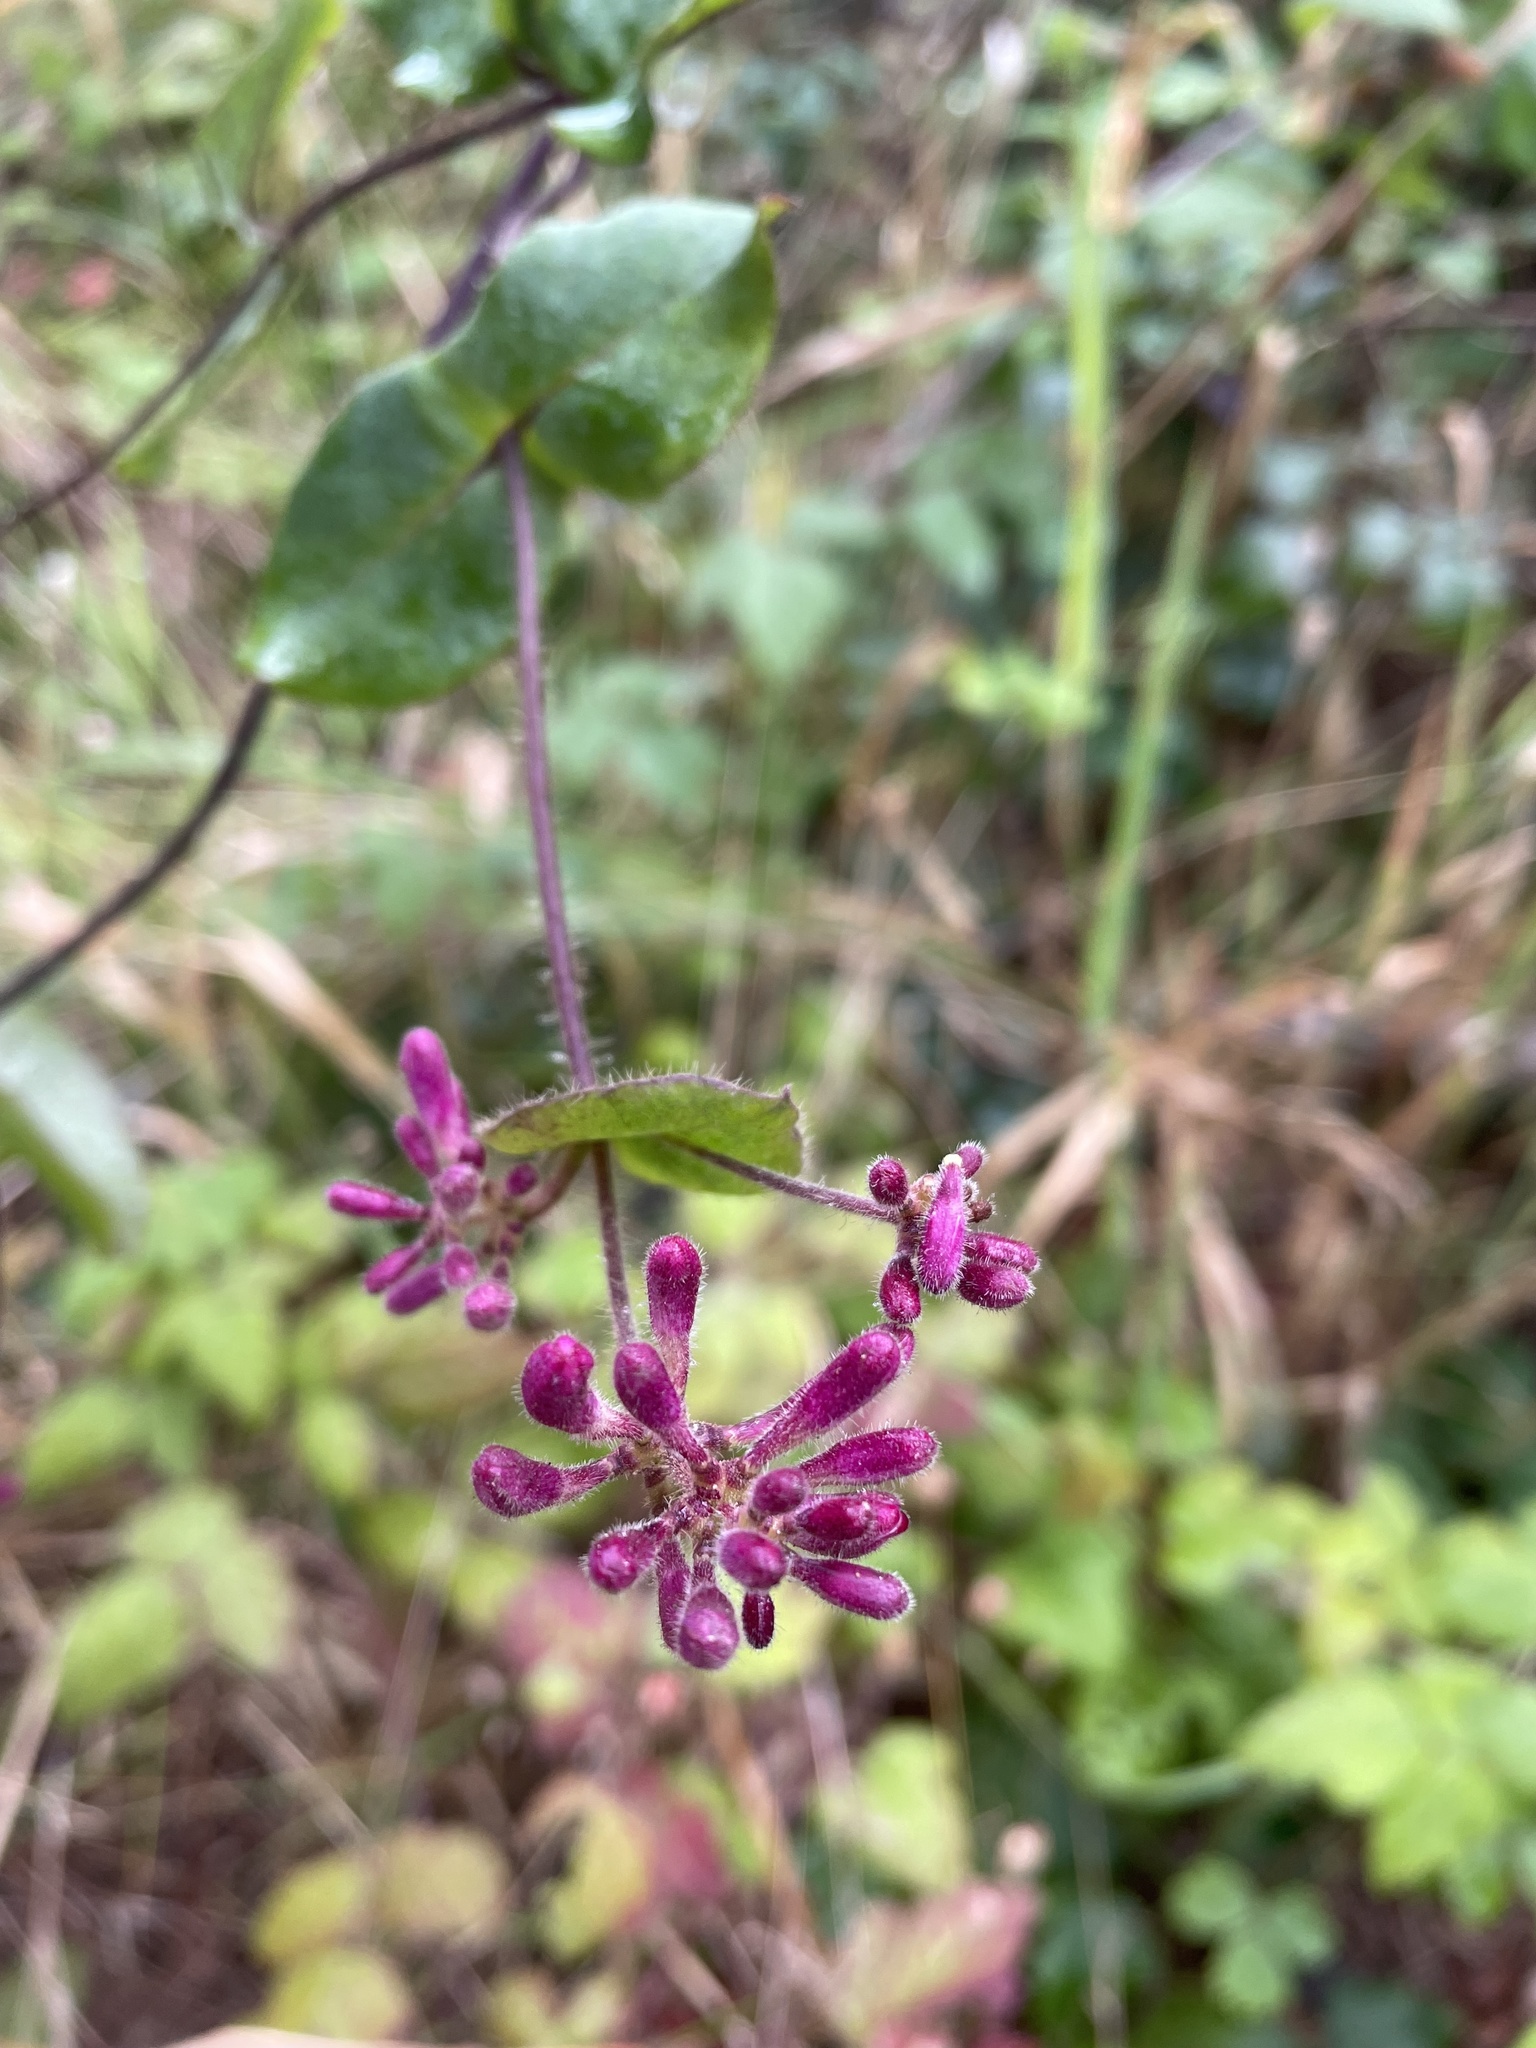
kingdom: Plantae
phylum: Tracheophyta
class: Magnoliopsida
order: Dipsacales
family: Caprifoliaceae
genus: Lonicera
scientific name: Lonicera hispidula
